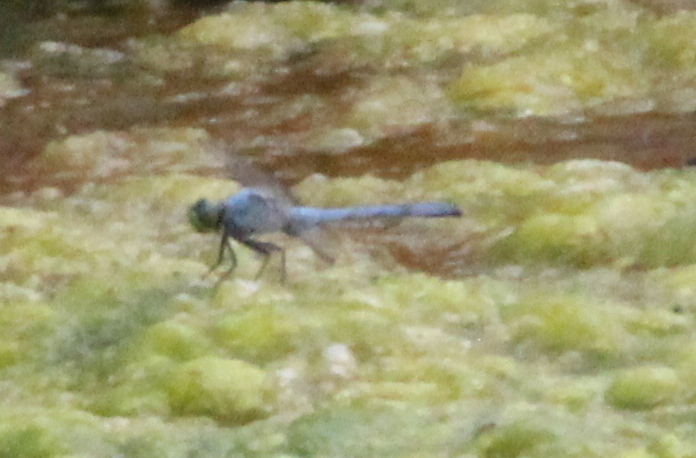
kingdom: Animalia
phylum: Arthropoda
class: Insecta
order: Odonata
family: Libellulidae
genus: Erythemis
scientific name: Erythemis simplicicollis
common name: Eastern pondhawk
